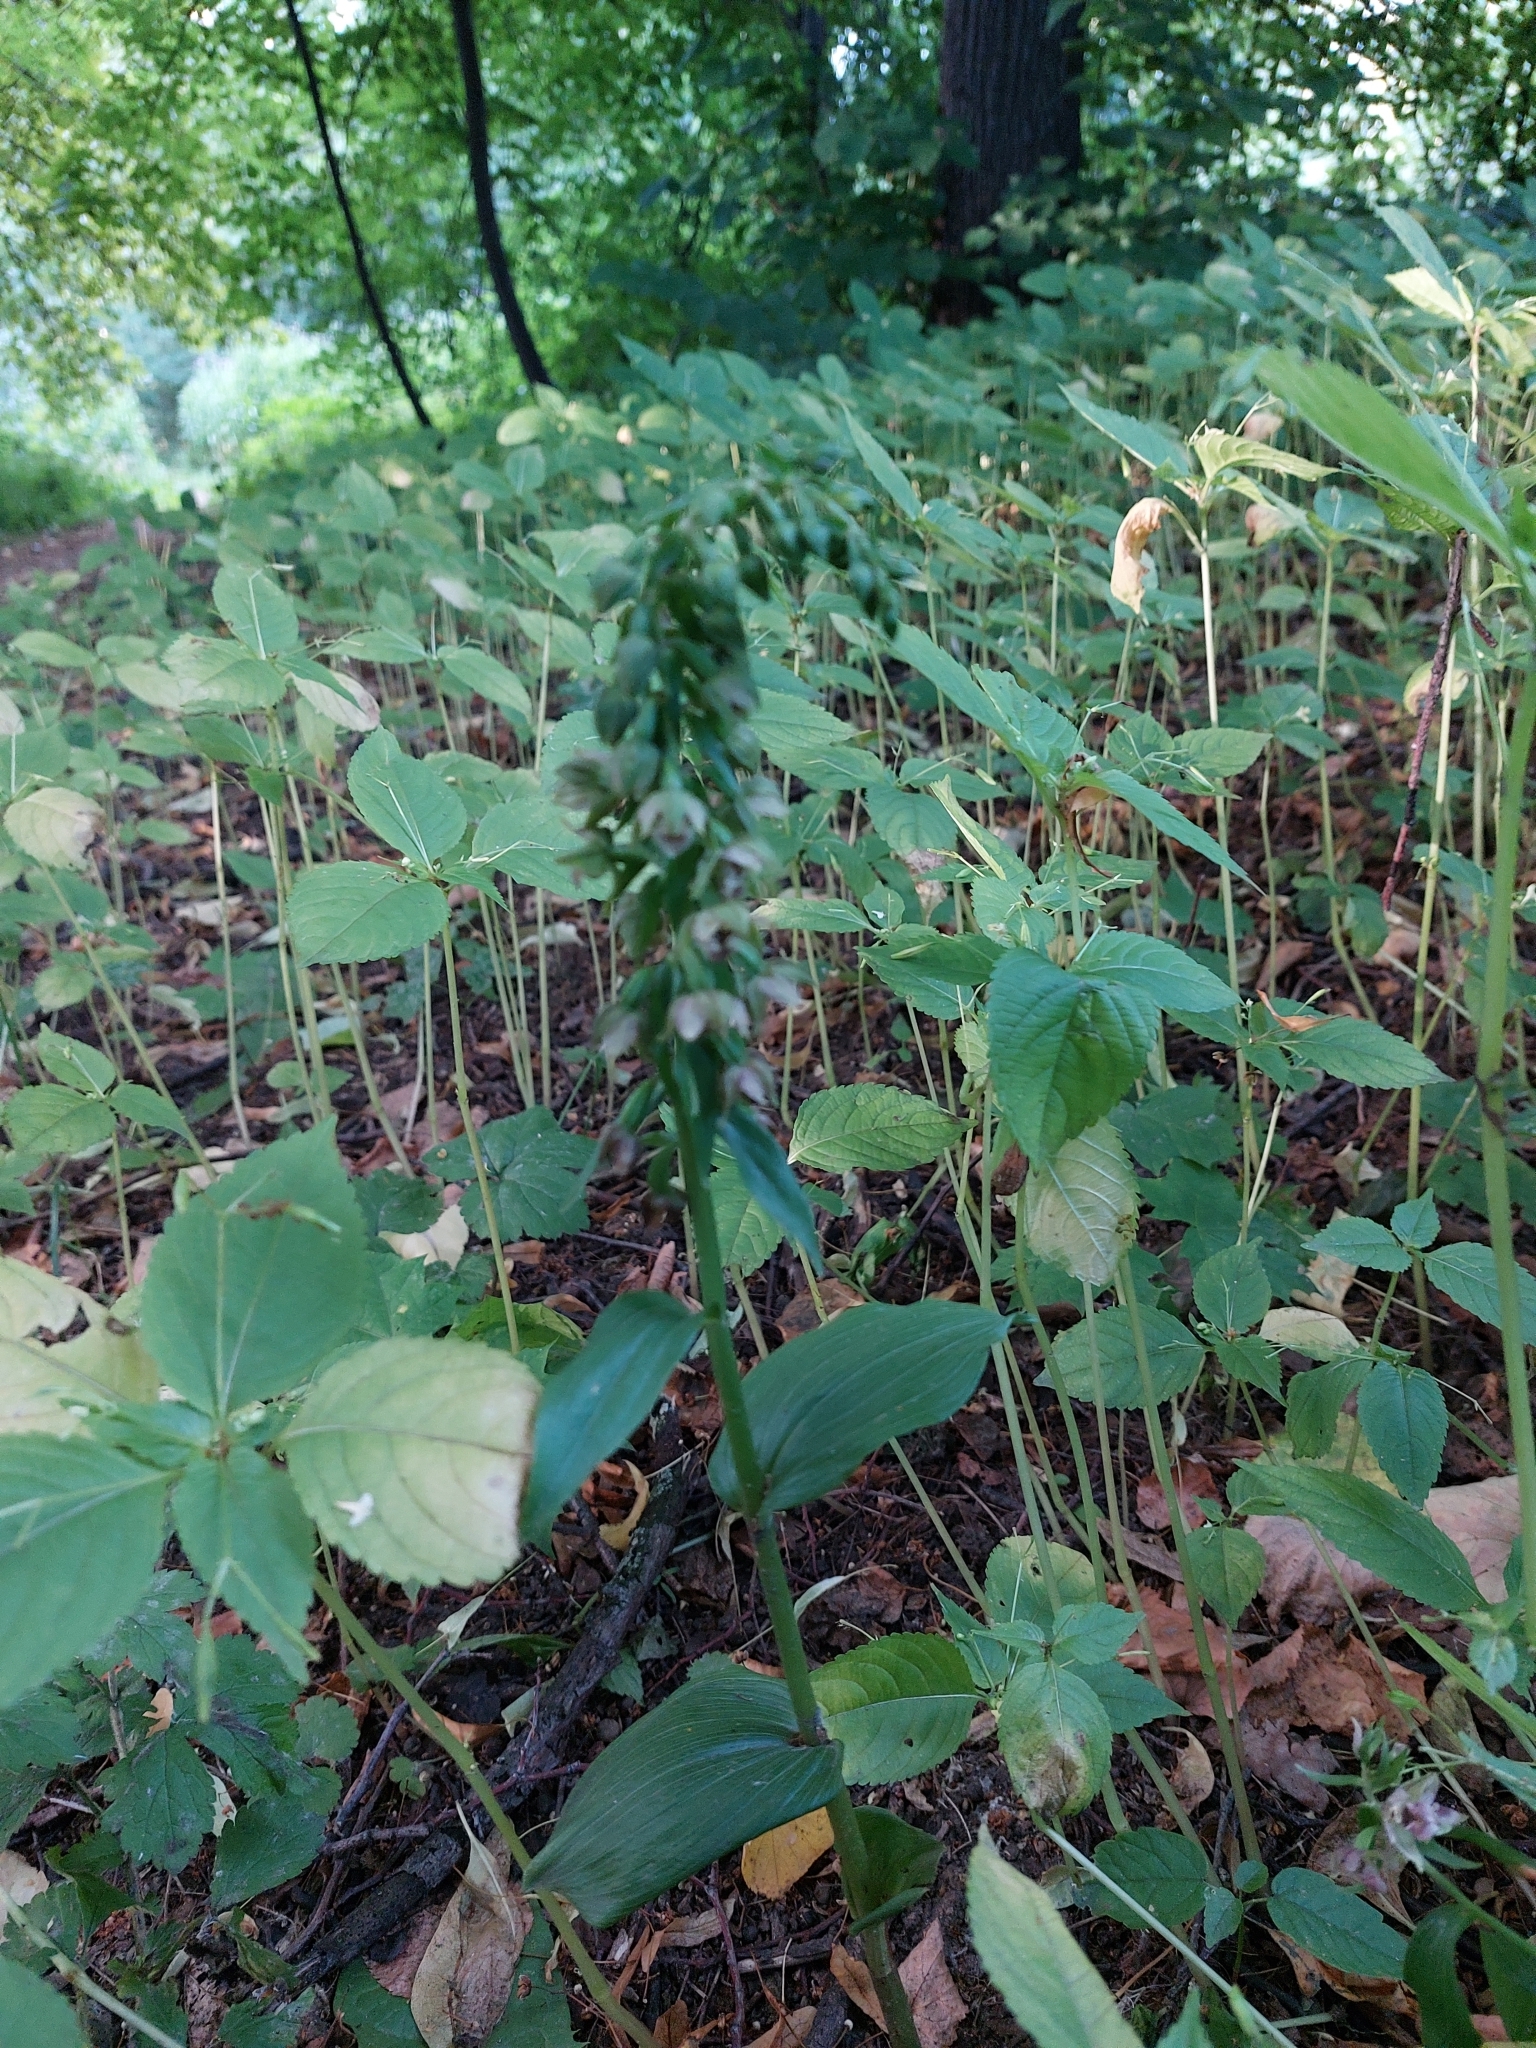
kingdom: Plantae
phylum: Tracheophyta
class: Liliopsida
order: Asparagales
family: Orchidaceae
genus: Epipactis
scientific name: Epipactis helleborine
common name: Broad-leaved helleborine
